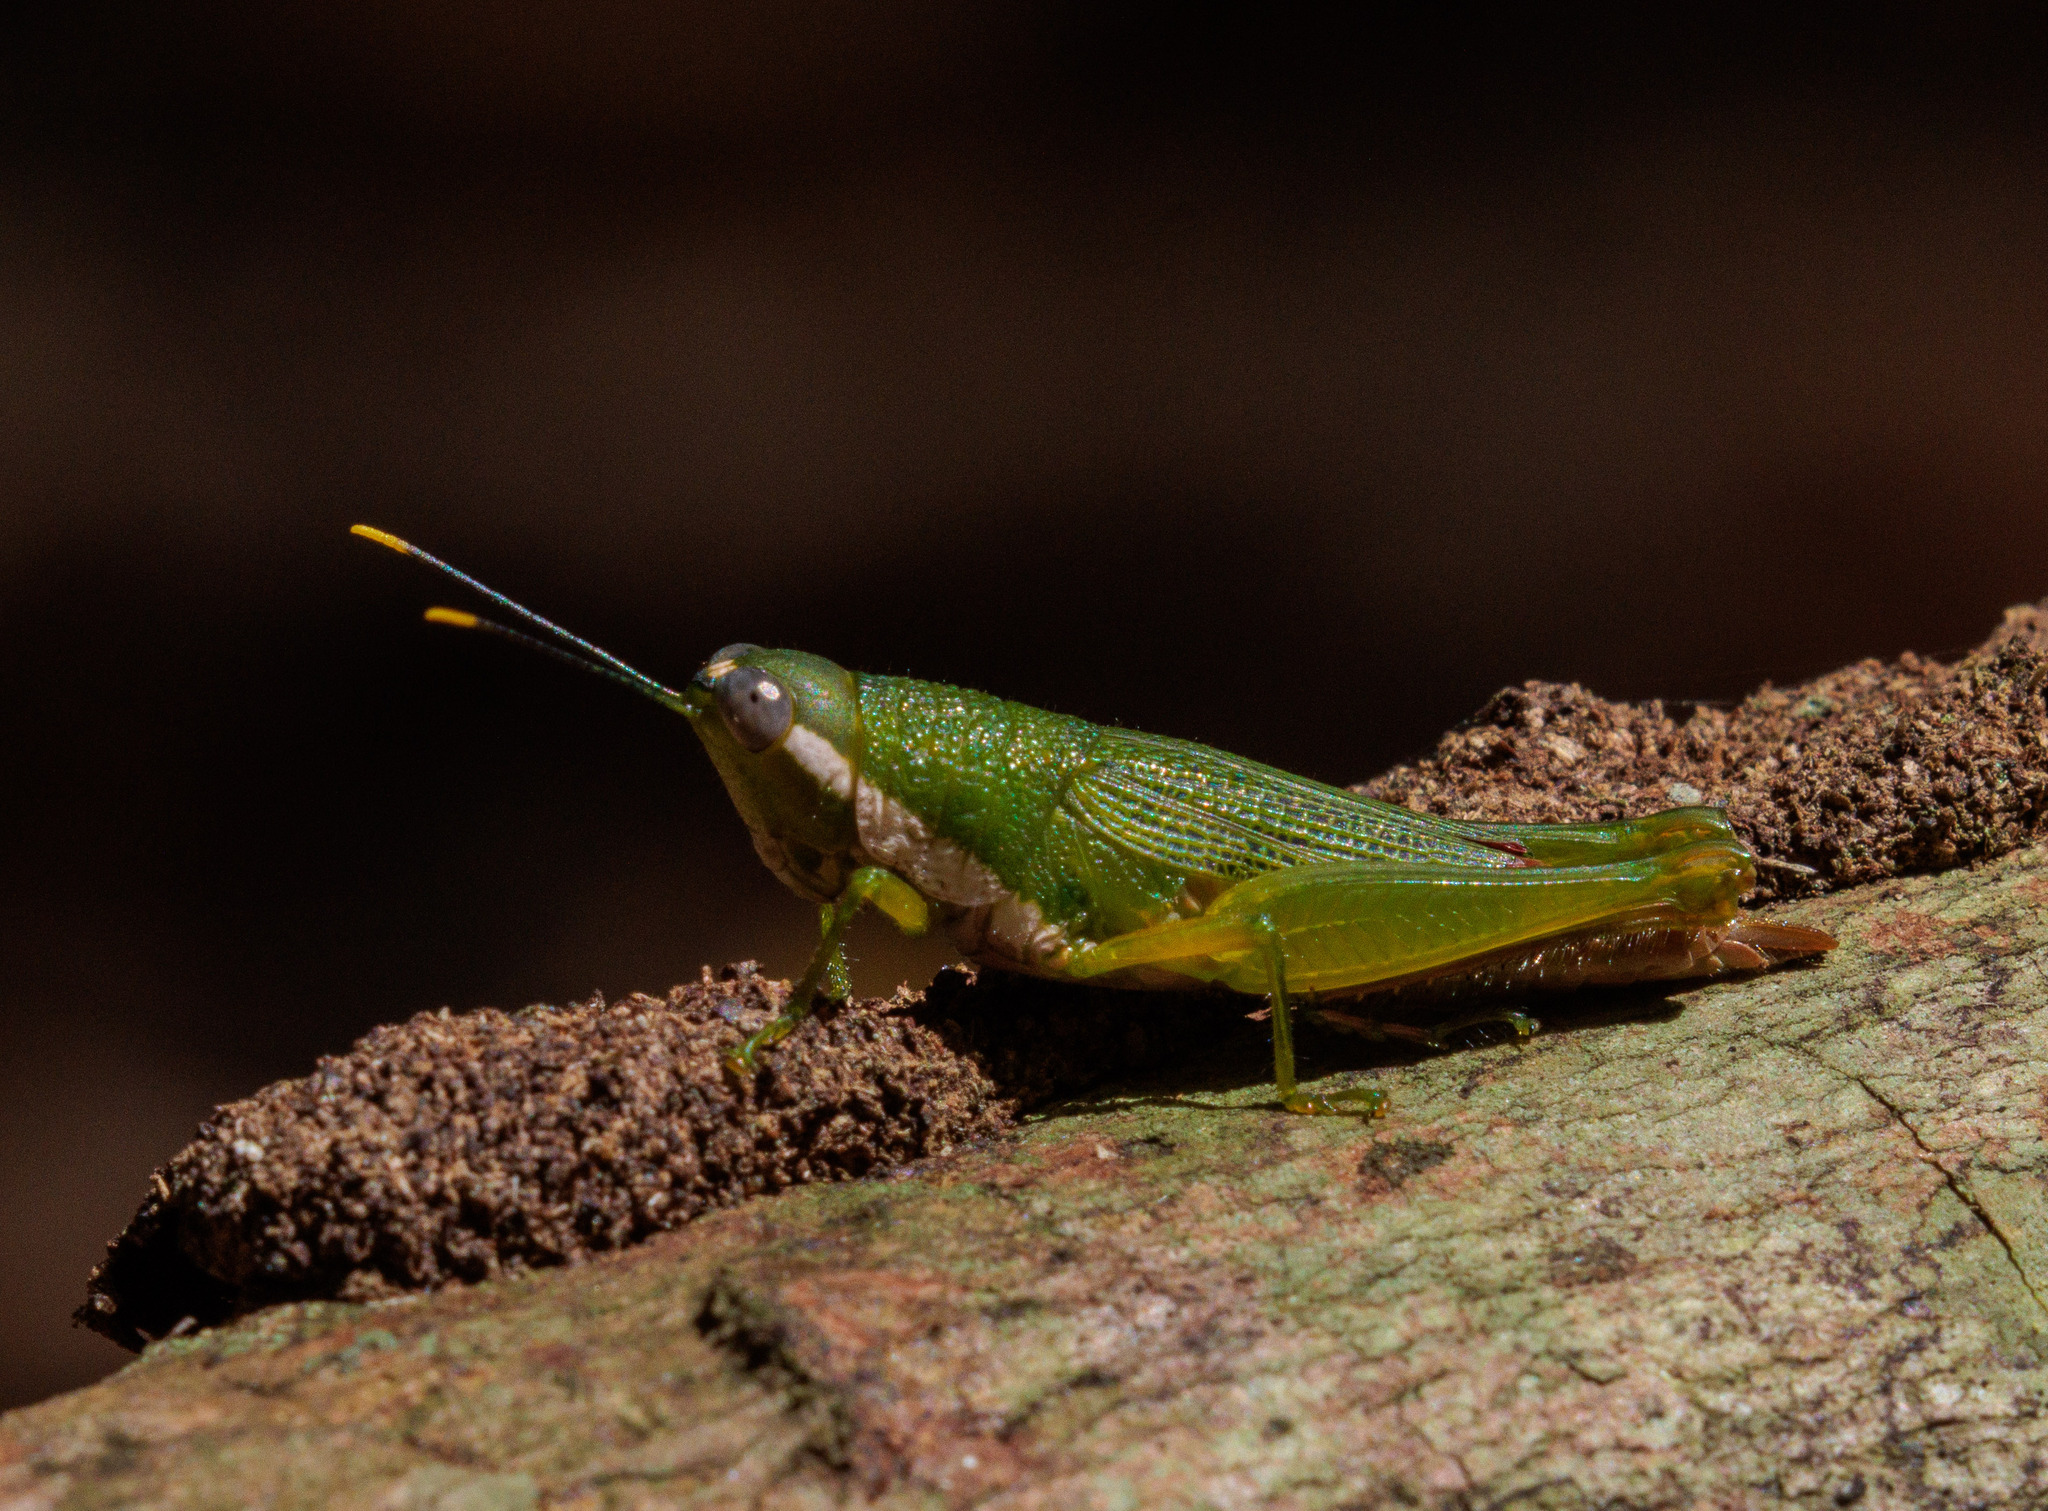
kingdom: Animalia
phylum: Arthropoda
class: Insecta
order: Orthoptera
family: Acrididae
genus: Caenacris
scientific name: Caenacris dissimilis
